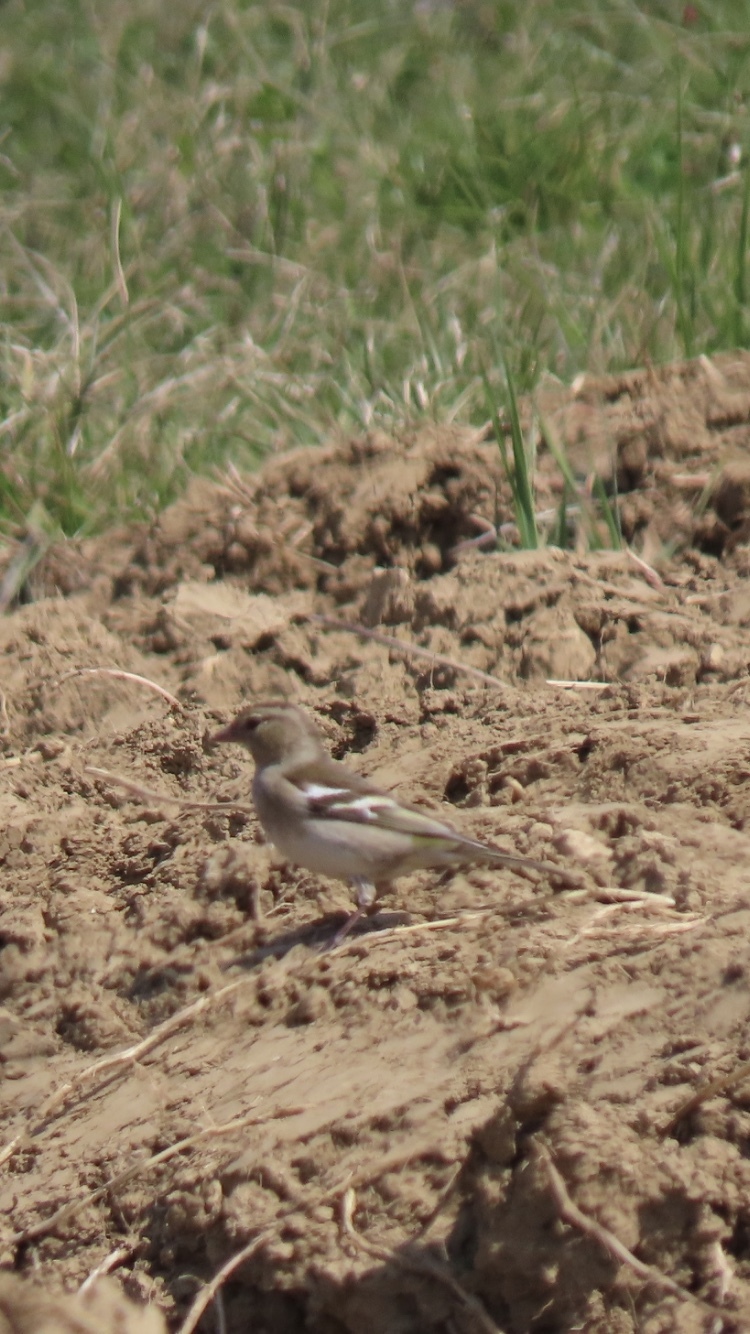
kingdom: Animalia
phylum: Chordata
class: Aves
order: Passeriformes
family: Fringillidae
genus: Fringilla
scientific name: Fringilla coelebs
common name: Common chaffinch
